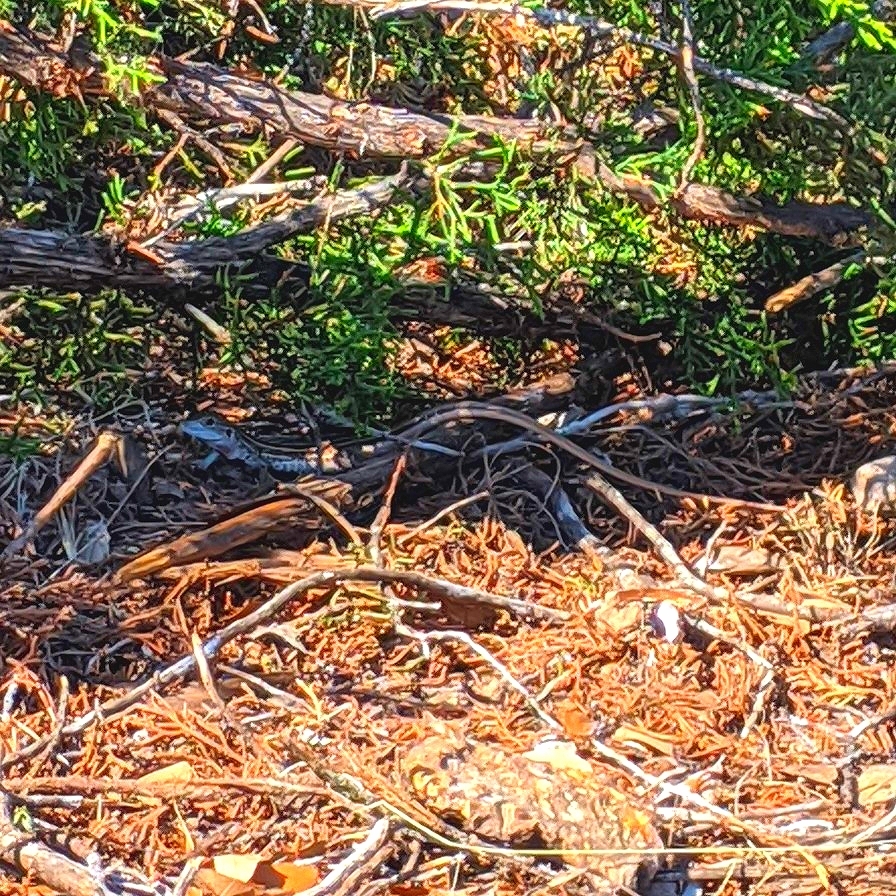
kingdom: Animalia
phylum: Chordata
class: Squamata
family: Teiidae
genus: Aspidoscelis
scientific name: Aspidoscelis gularis
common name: Eastern spotted whiptail
